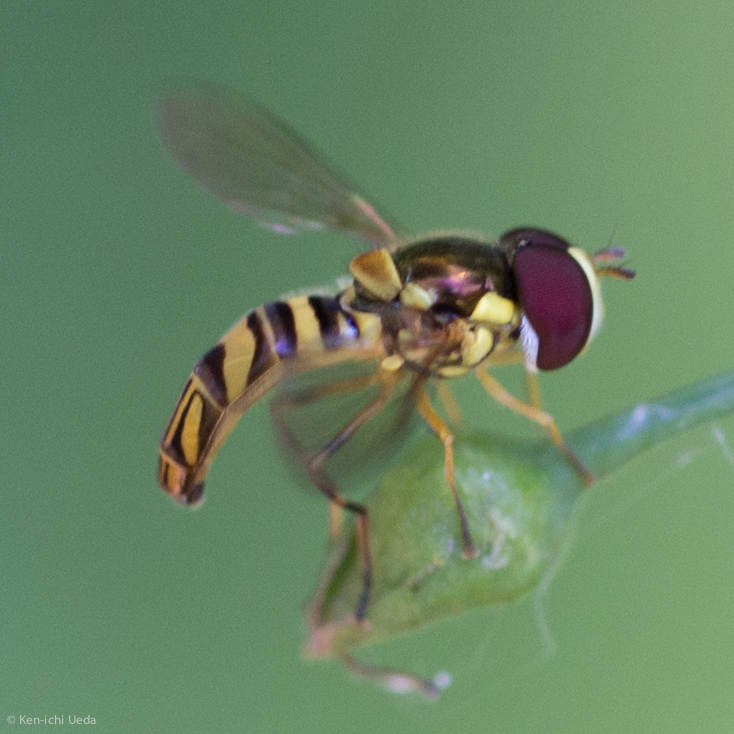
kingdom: Animalia
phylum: Arthropoda
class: Insecta
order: Diptera
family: Syrphidae
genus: Allograpta
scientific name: Allograpta obliqua
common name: Common oblique syrphid
